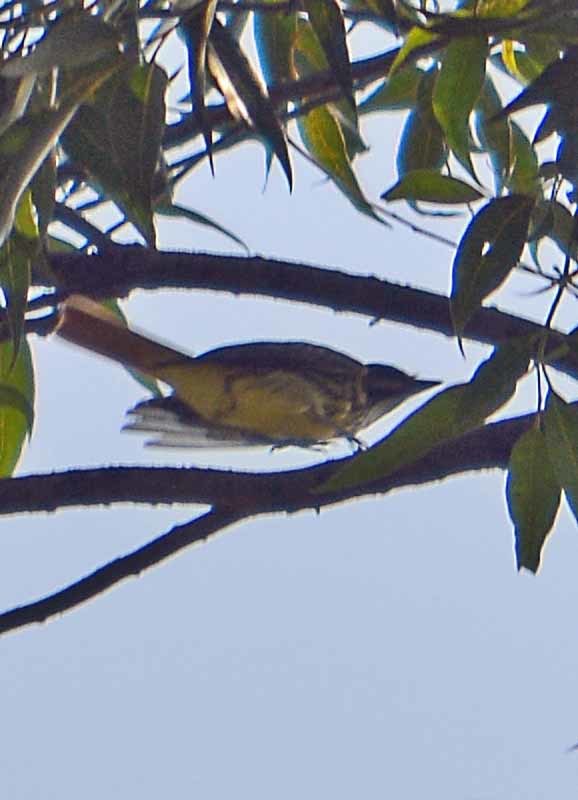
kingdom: Animalia
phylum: Chordata
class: Aves
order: Passeriformes
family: Tyrannidae
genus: Myiodynastes
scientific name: Myiodynastes luteiventris
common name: Sulphur-bellied flycatcher
